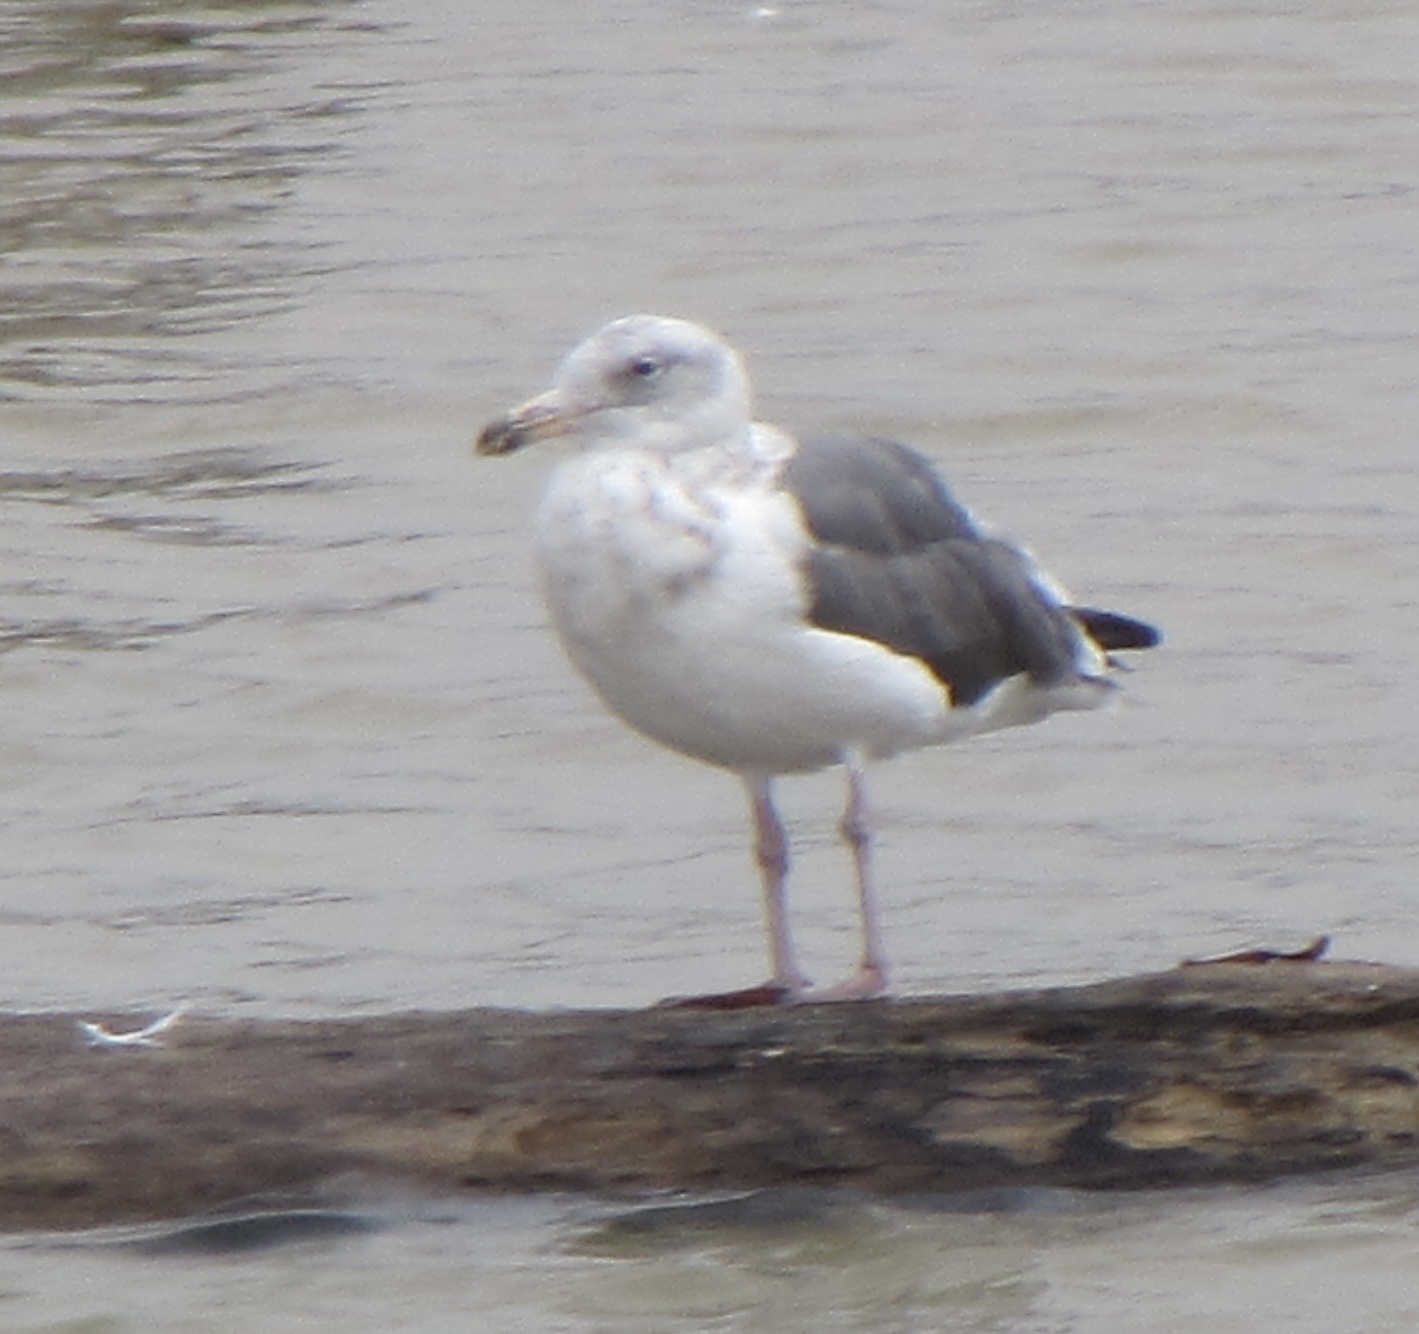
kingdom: Animalia
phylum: Chordata
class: Aves
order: Charadriiformes
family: Laridae
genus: Larus
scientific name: Larus occidentalis
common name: Western gull
